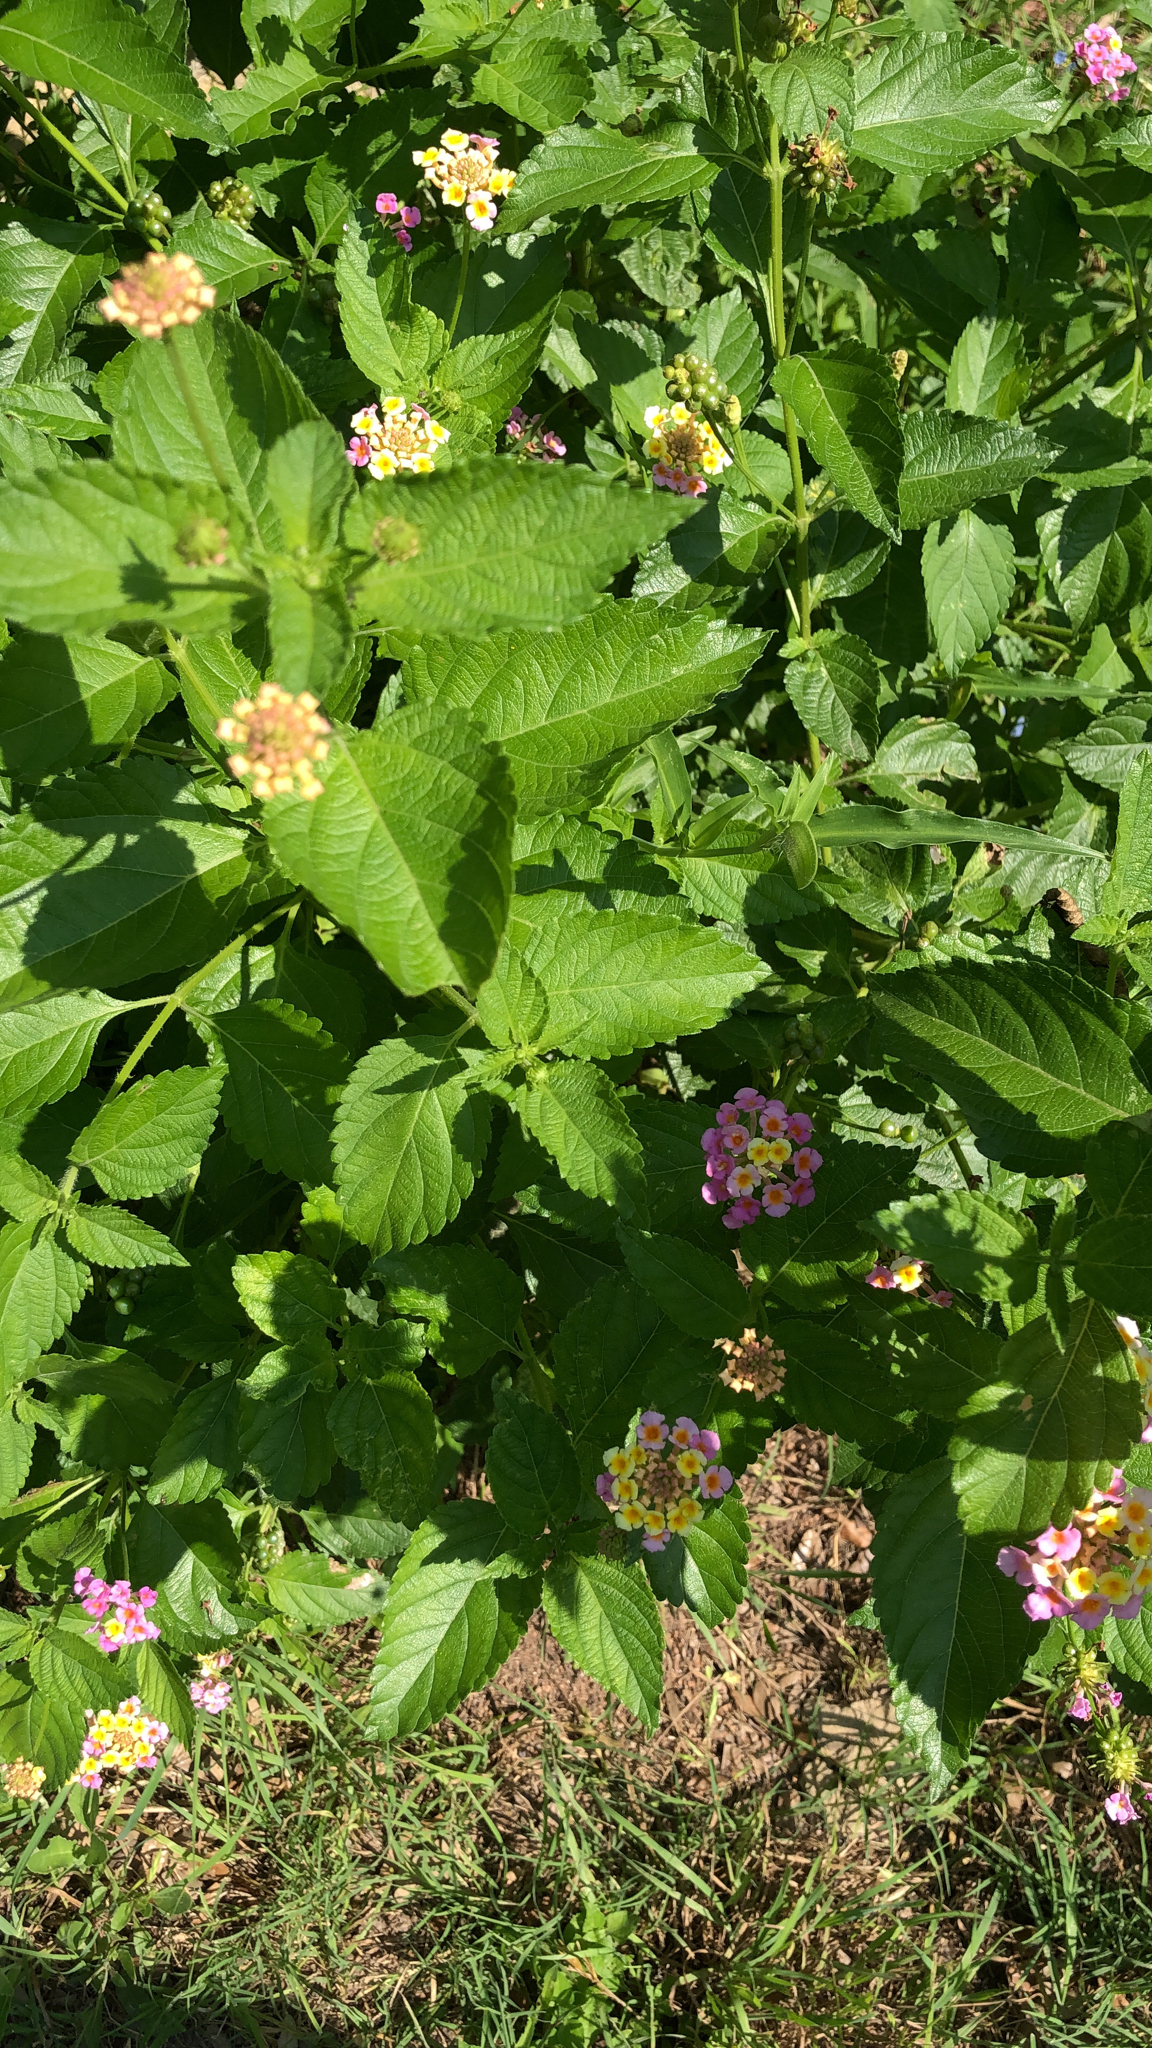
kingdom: Plantae
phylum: Tracheophyta
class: Magnoliopsida
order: Lamiales
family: Verbenaceae
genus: Lantana
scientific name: Lantana strigocamara
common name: Lantana
